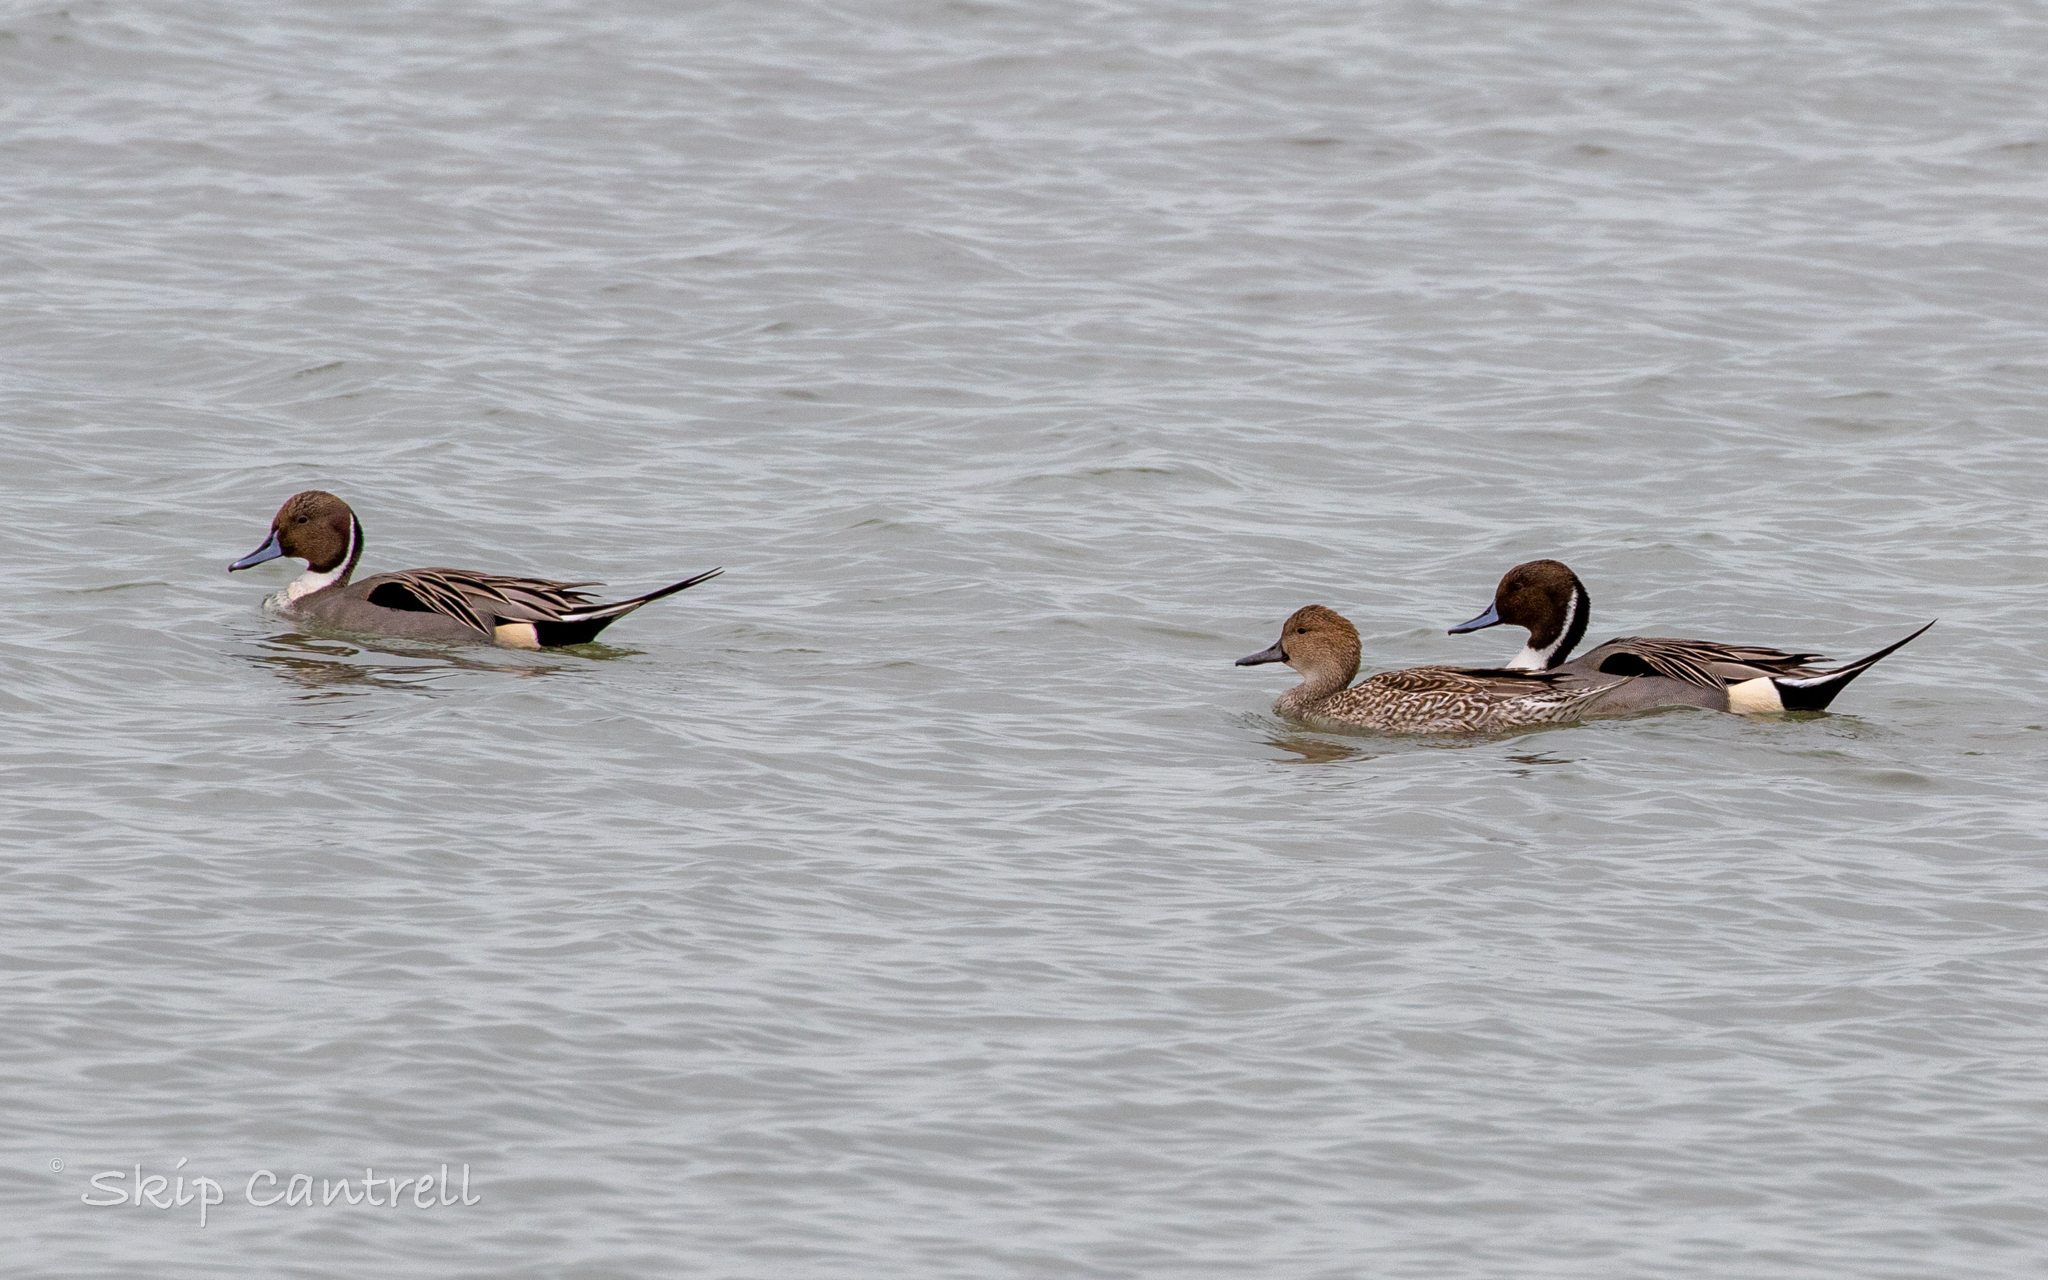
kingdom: Animalia
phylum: Chordata
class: Aves
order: Anseriformes
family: Anatidae
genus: Anas
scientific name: Anas acuta
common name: Northern pintail
